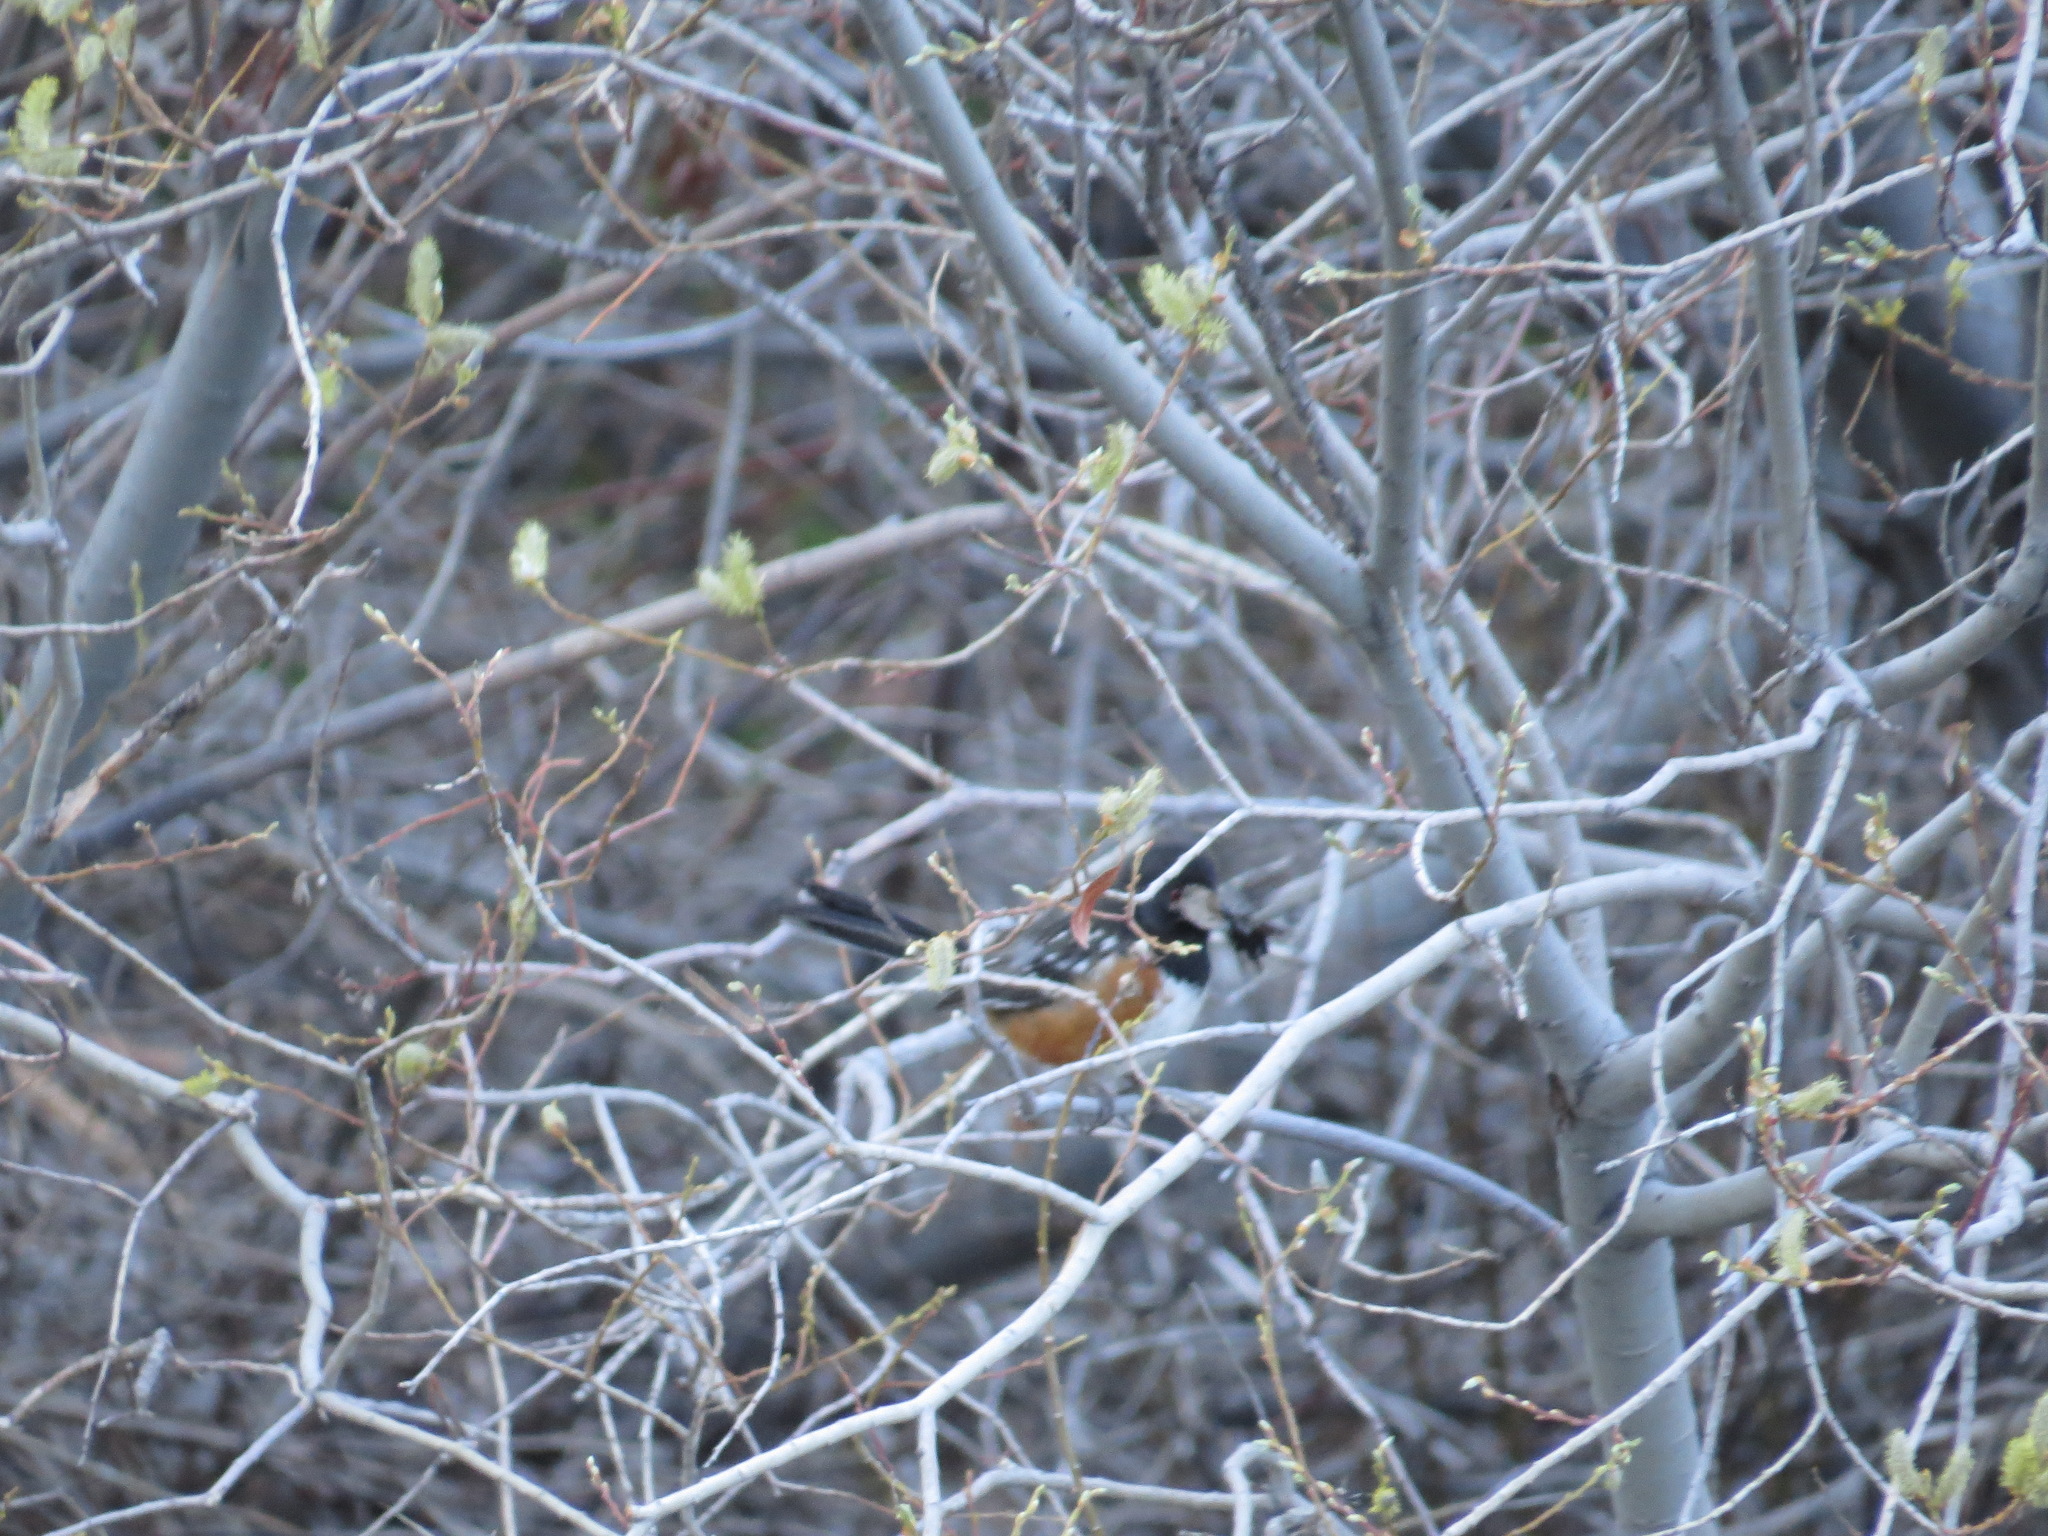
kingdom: Animalia
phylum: Chordata
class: Aves
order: Passeriformes
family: Passerellidae
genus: Pipilo
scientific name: Pipilo maculatus
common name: Spotted towhee
